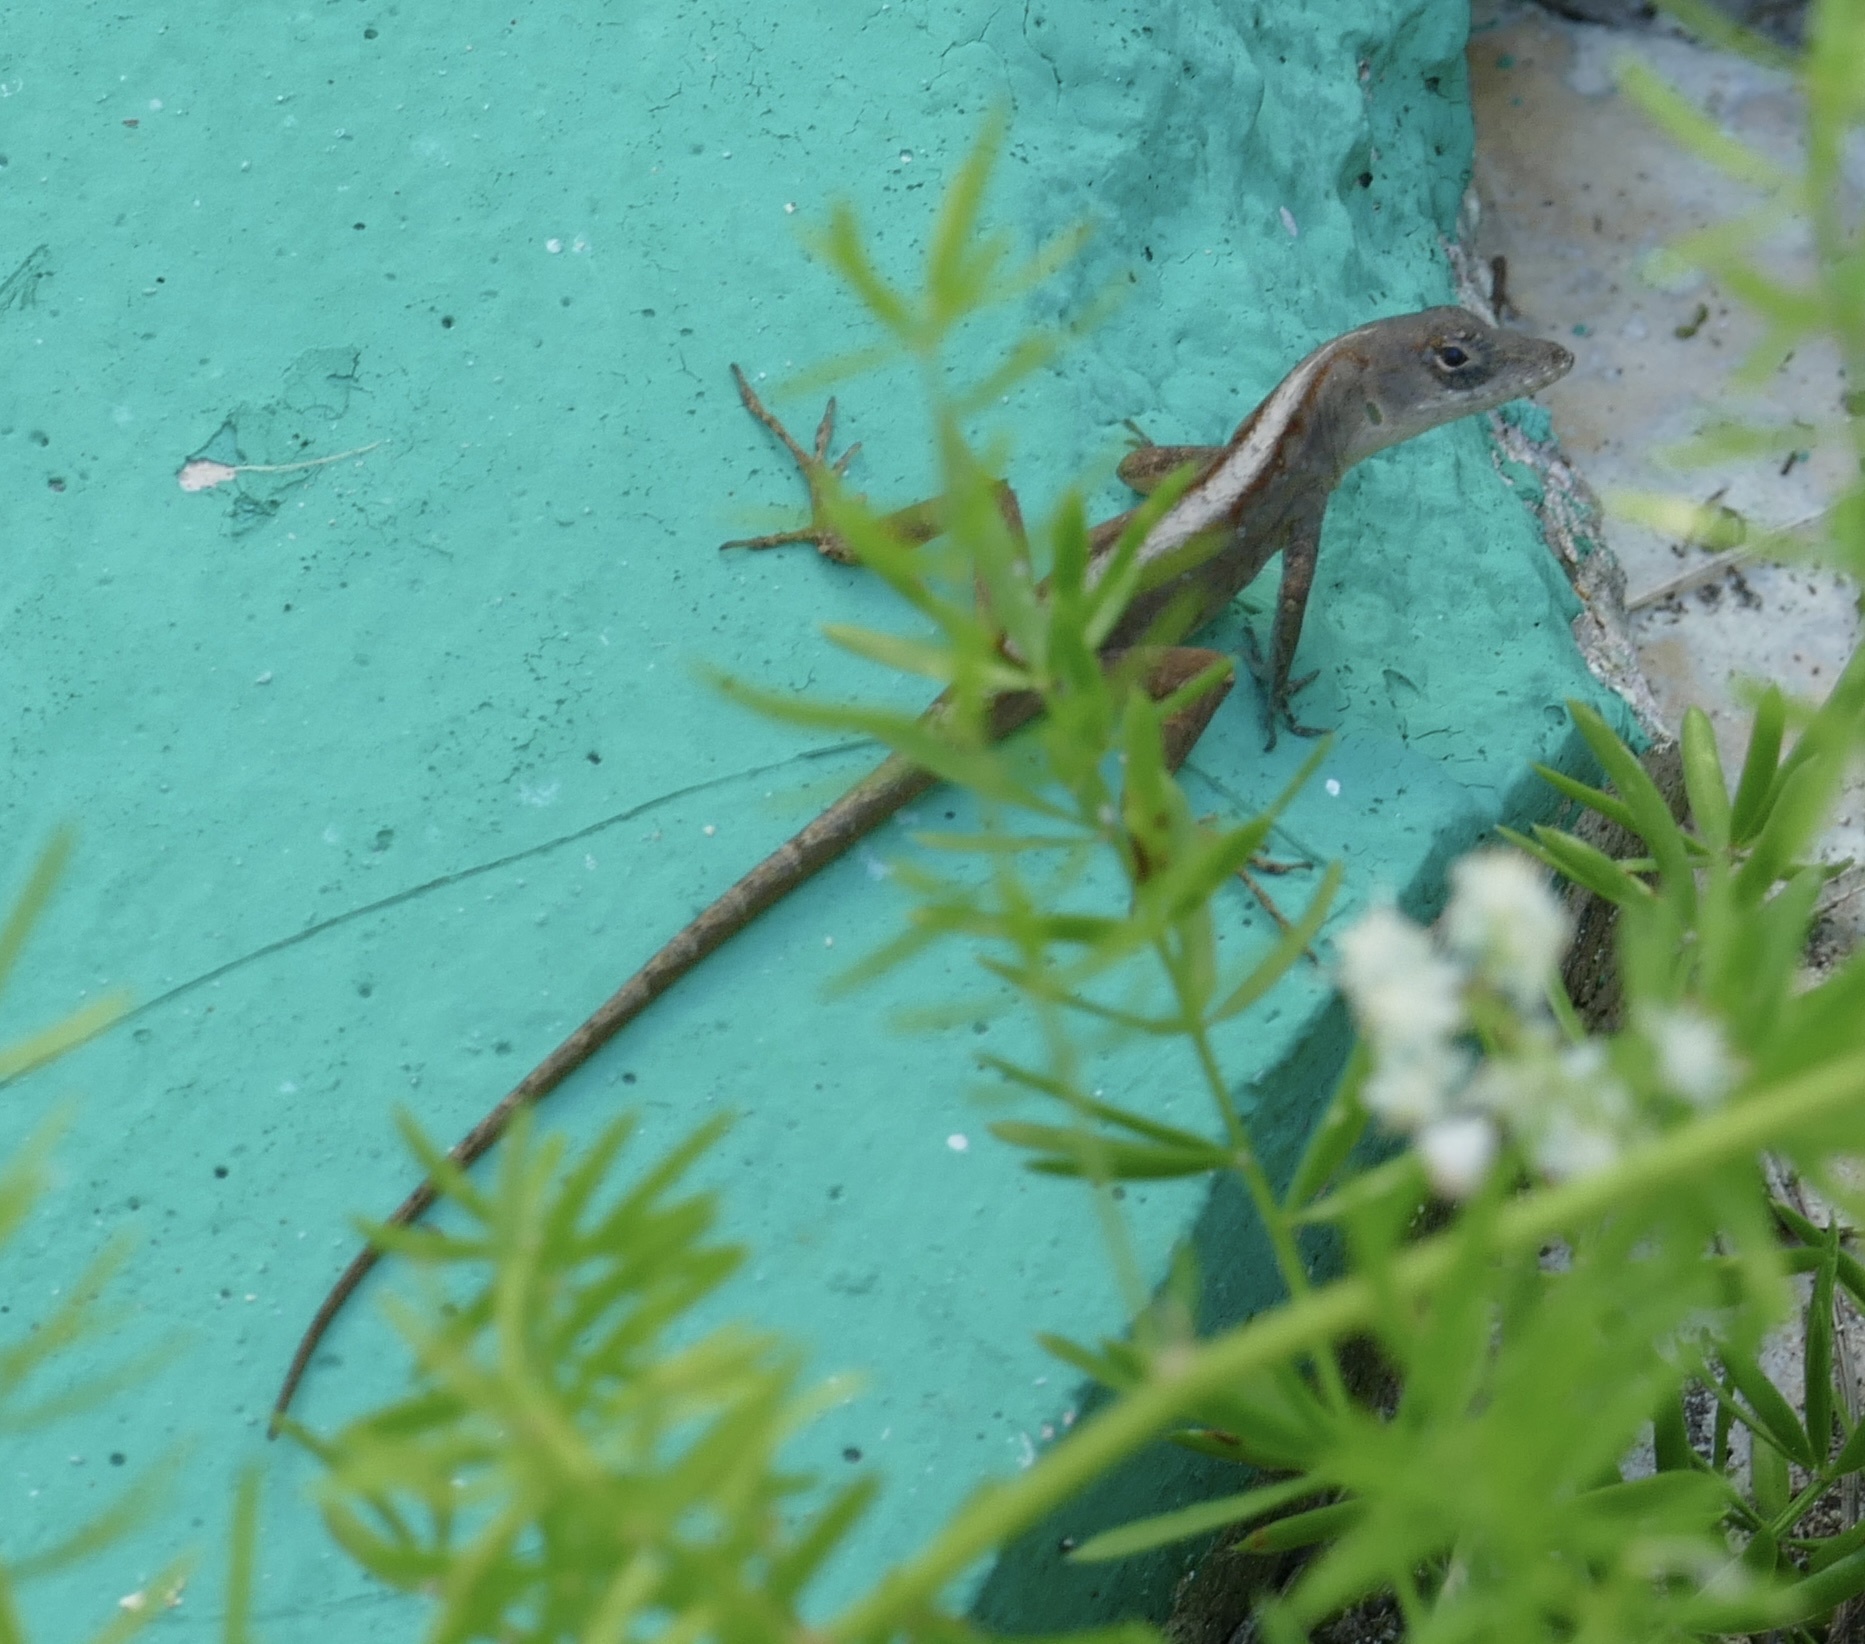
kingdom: Animalia
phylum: Chordata
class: Squamata
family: Dactyloidae
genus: Anolis
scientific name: Anolis sagrei
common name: Brown anole
